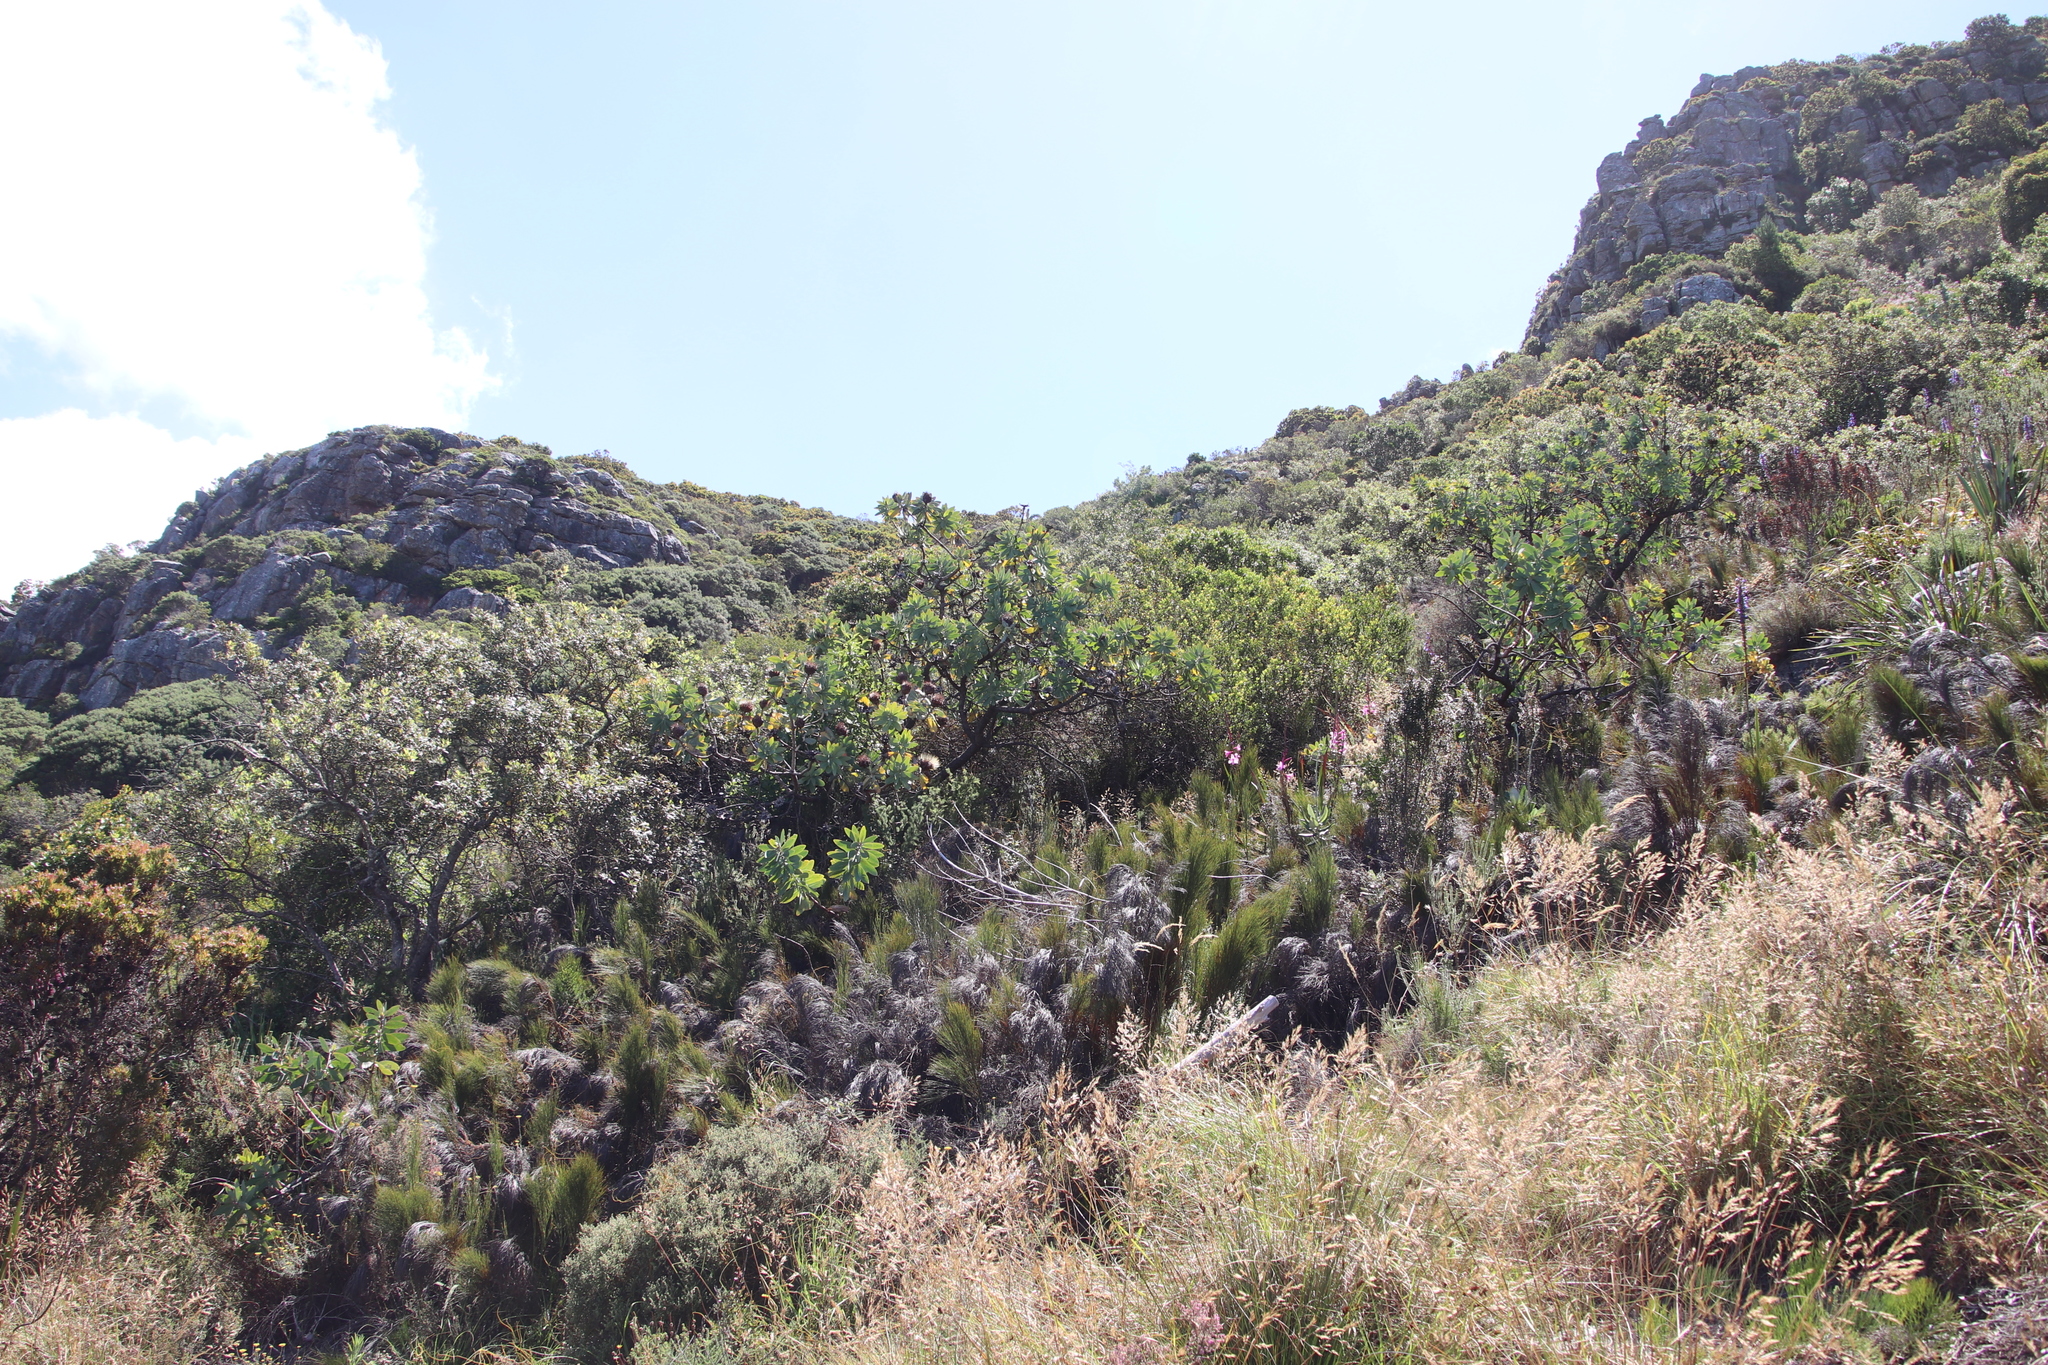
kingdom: Plantae
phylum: Tracheophyta
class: Magnoliopsida
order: Proteales
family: Proteaceae
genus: Protea
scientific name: Protea nitida
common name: Tree protea
